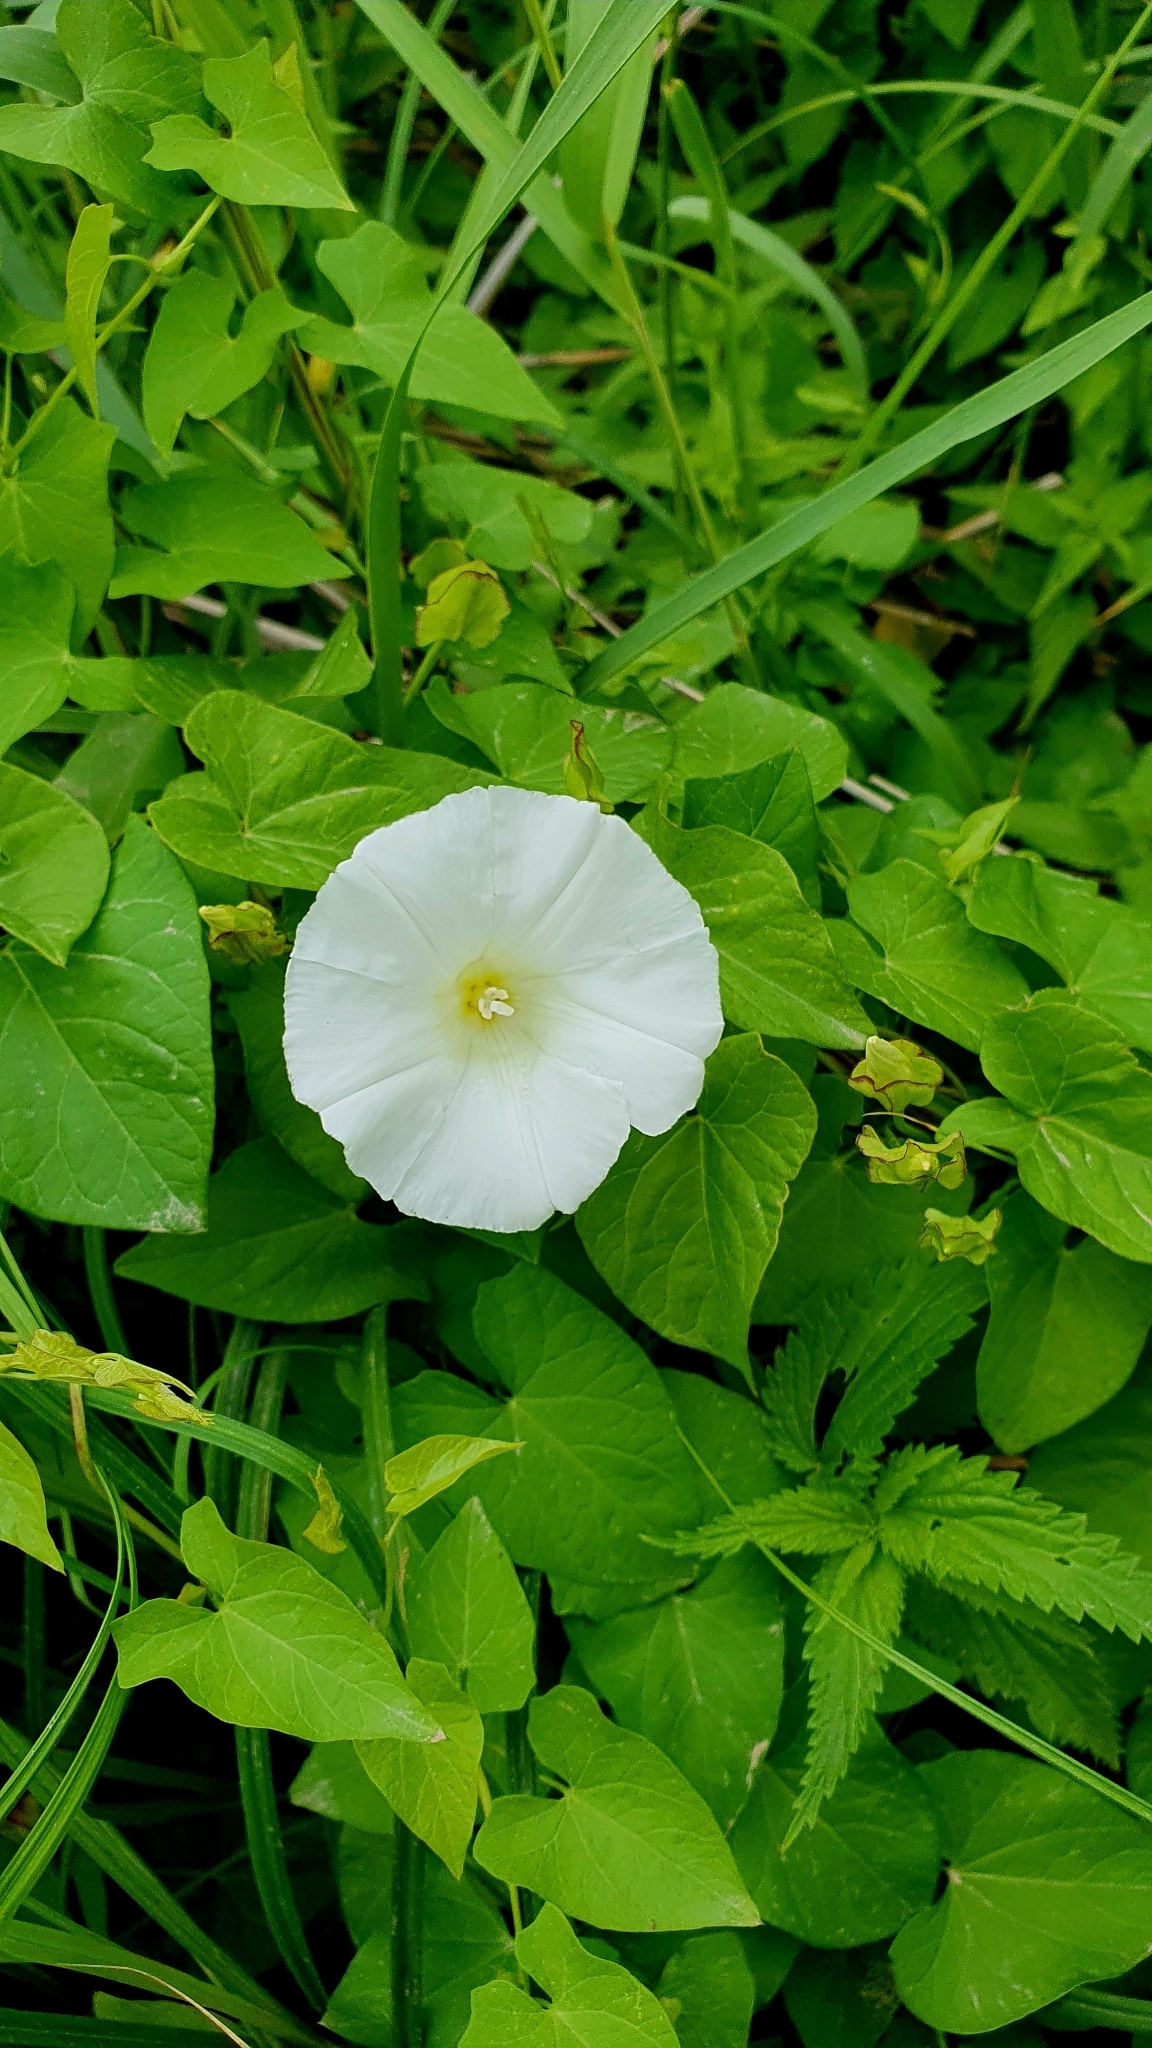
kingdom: Plantae
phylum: Tracheophyta
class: Magnoliopsida
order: Solanales
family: Convolvulaceae
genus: Calystegia
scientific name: Calystegia sepium
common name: Hedge bindweed
